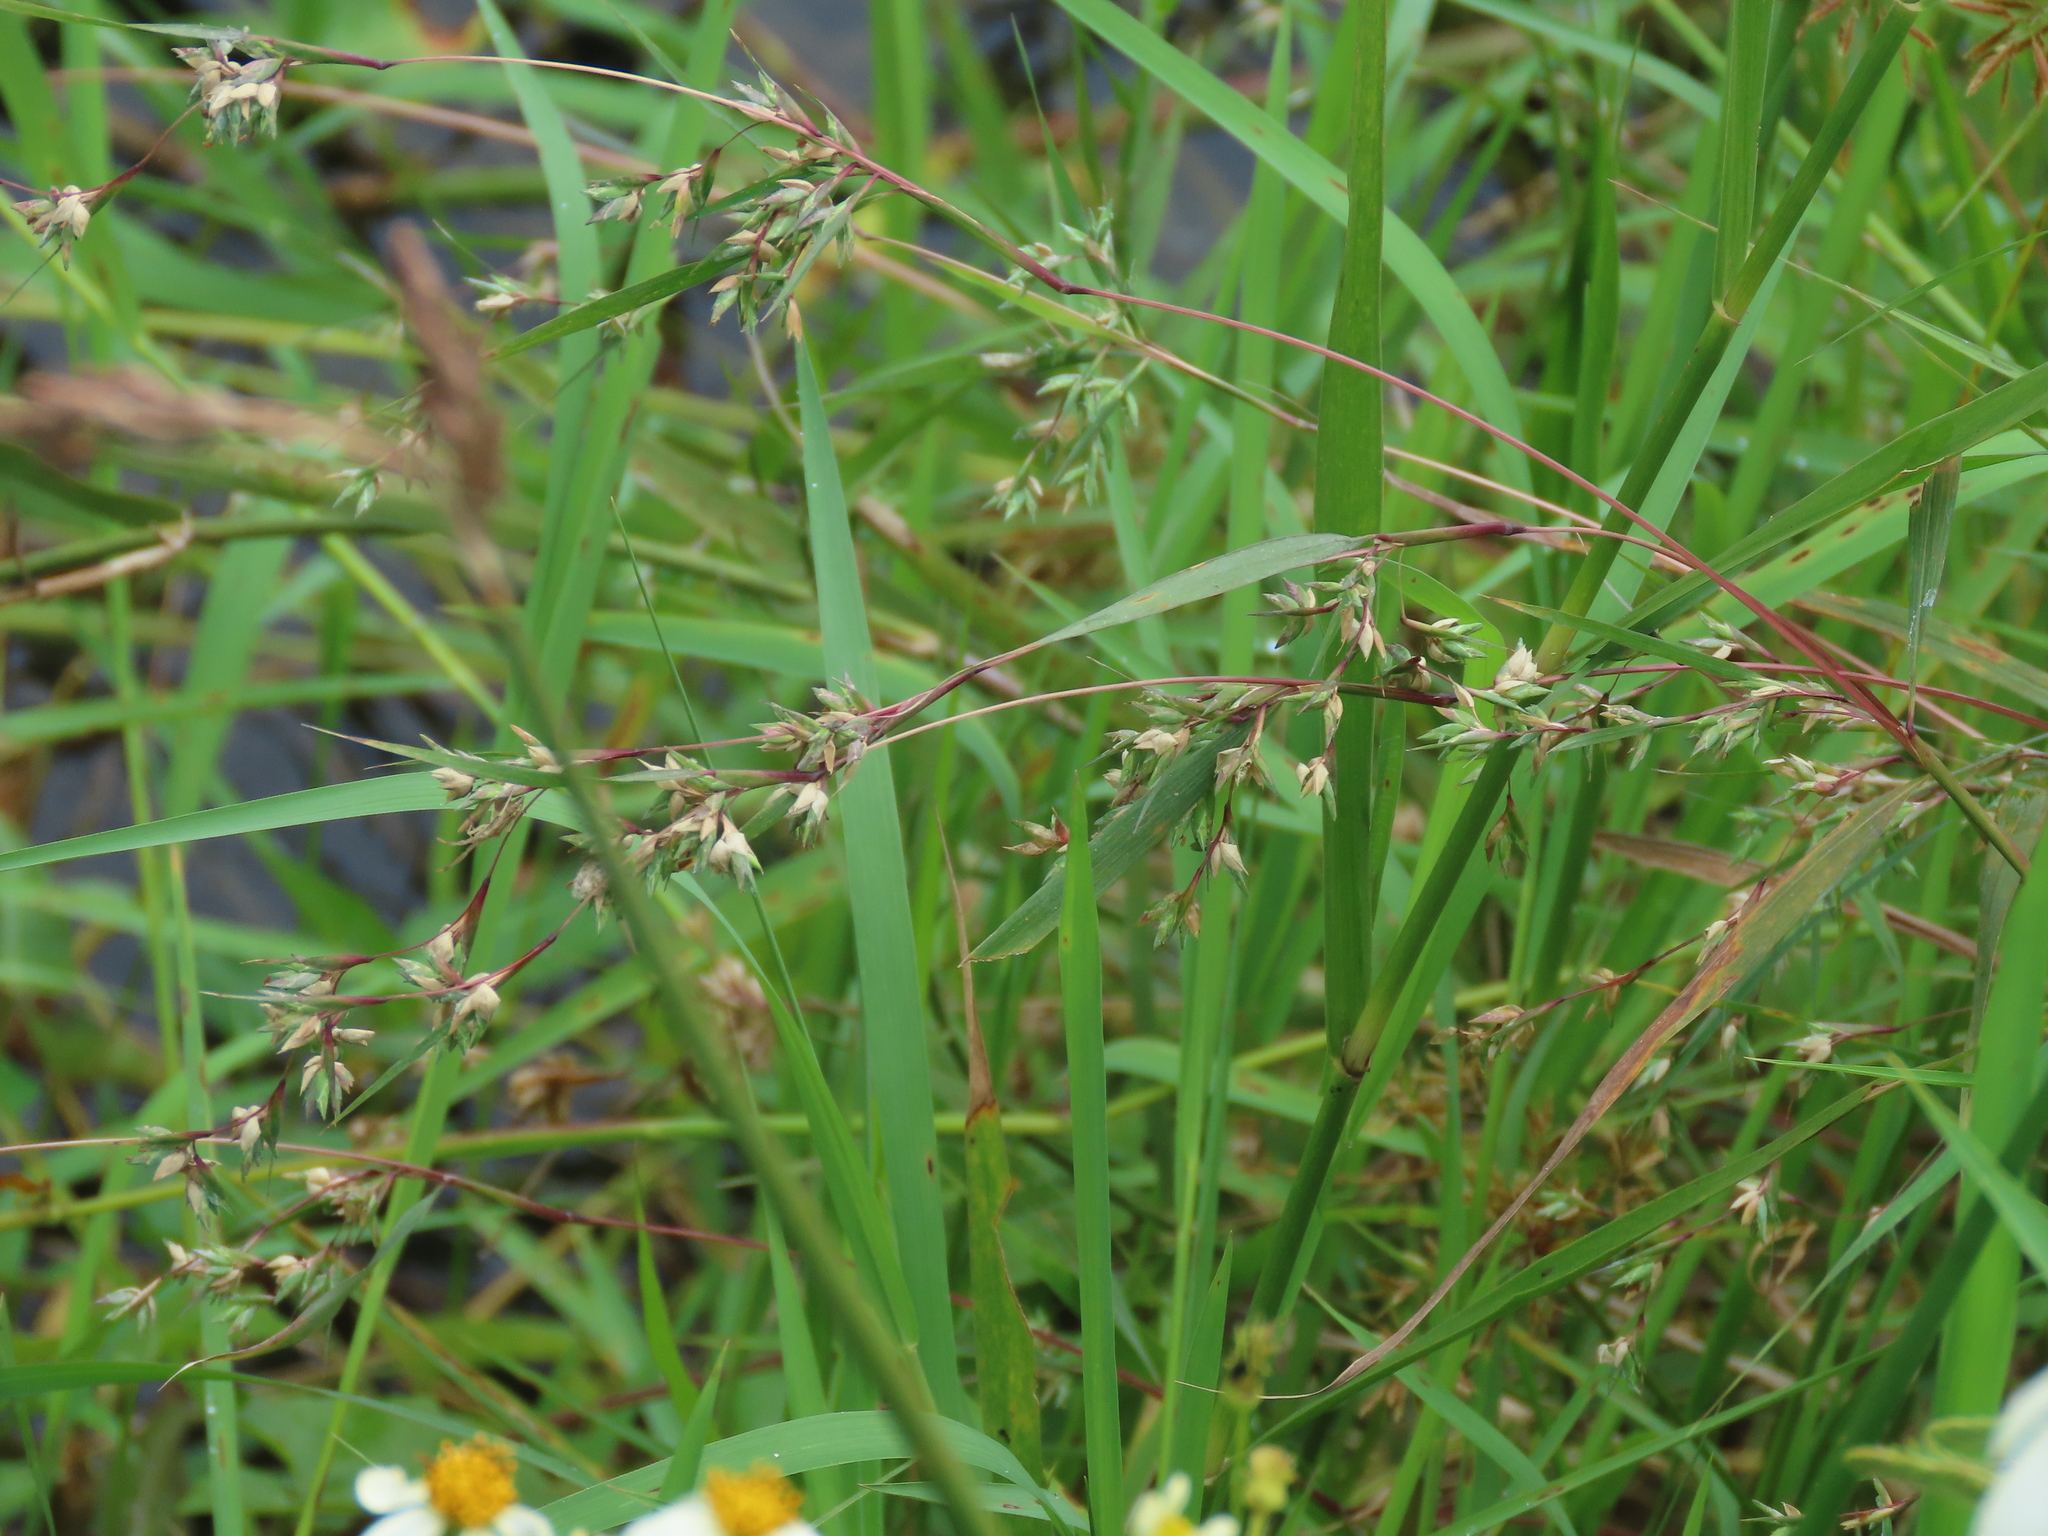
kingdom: Plantae
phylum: Tracheophyta
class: Liliopsida
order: Poales
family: Poaceae
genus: Apluda
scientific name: Apluda mutica
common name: Mauritian grass
